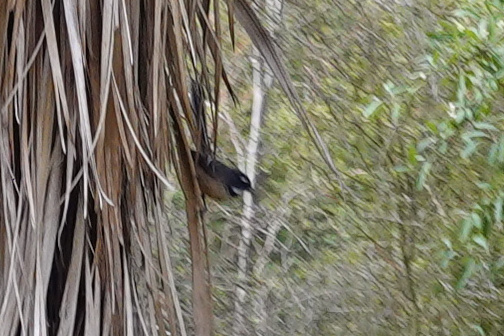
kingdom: Animalia
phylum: Chordata
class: Aves
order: Passeriformes
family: Rhipiduridae
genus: Rhipidura
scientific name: Rhipidura fuliginosa
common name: New zealand fantail
